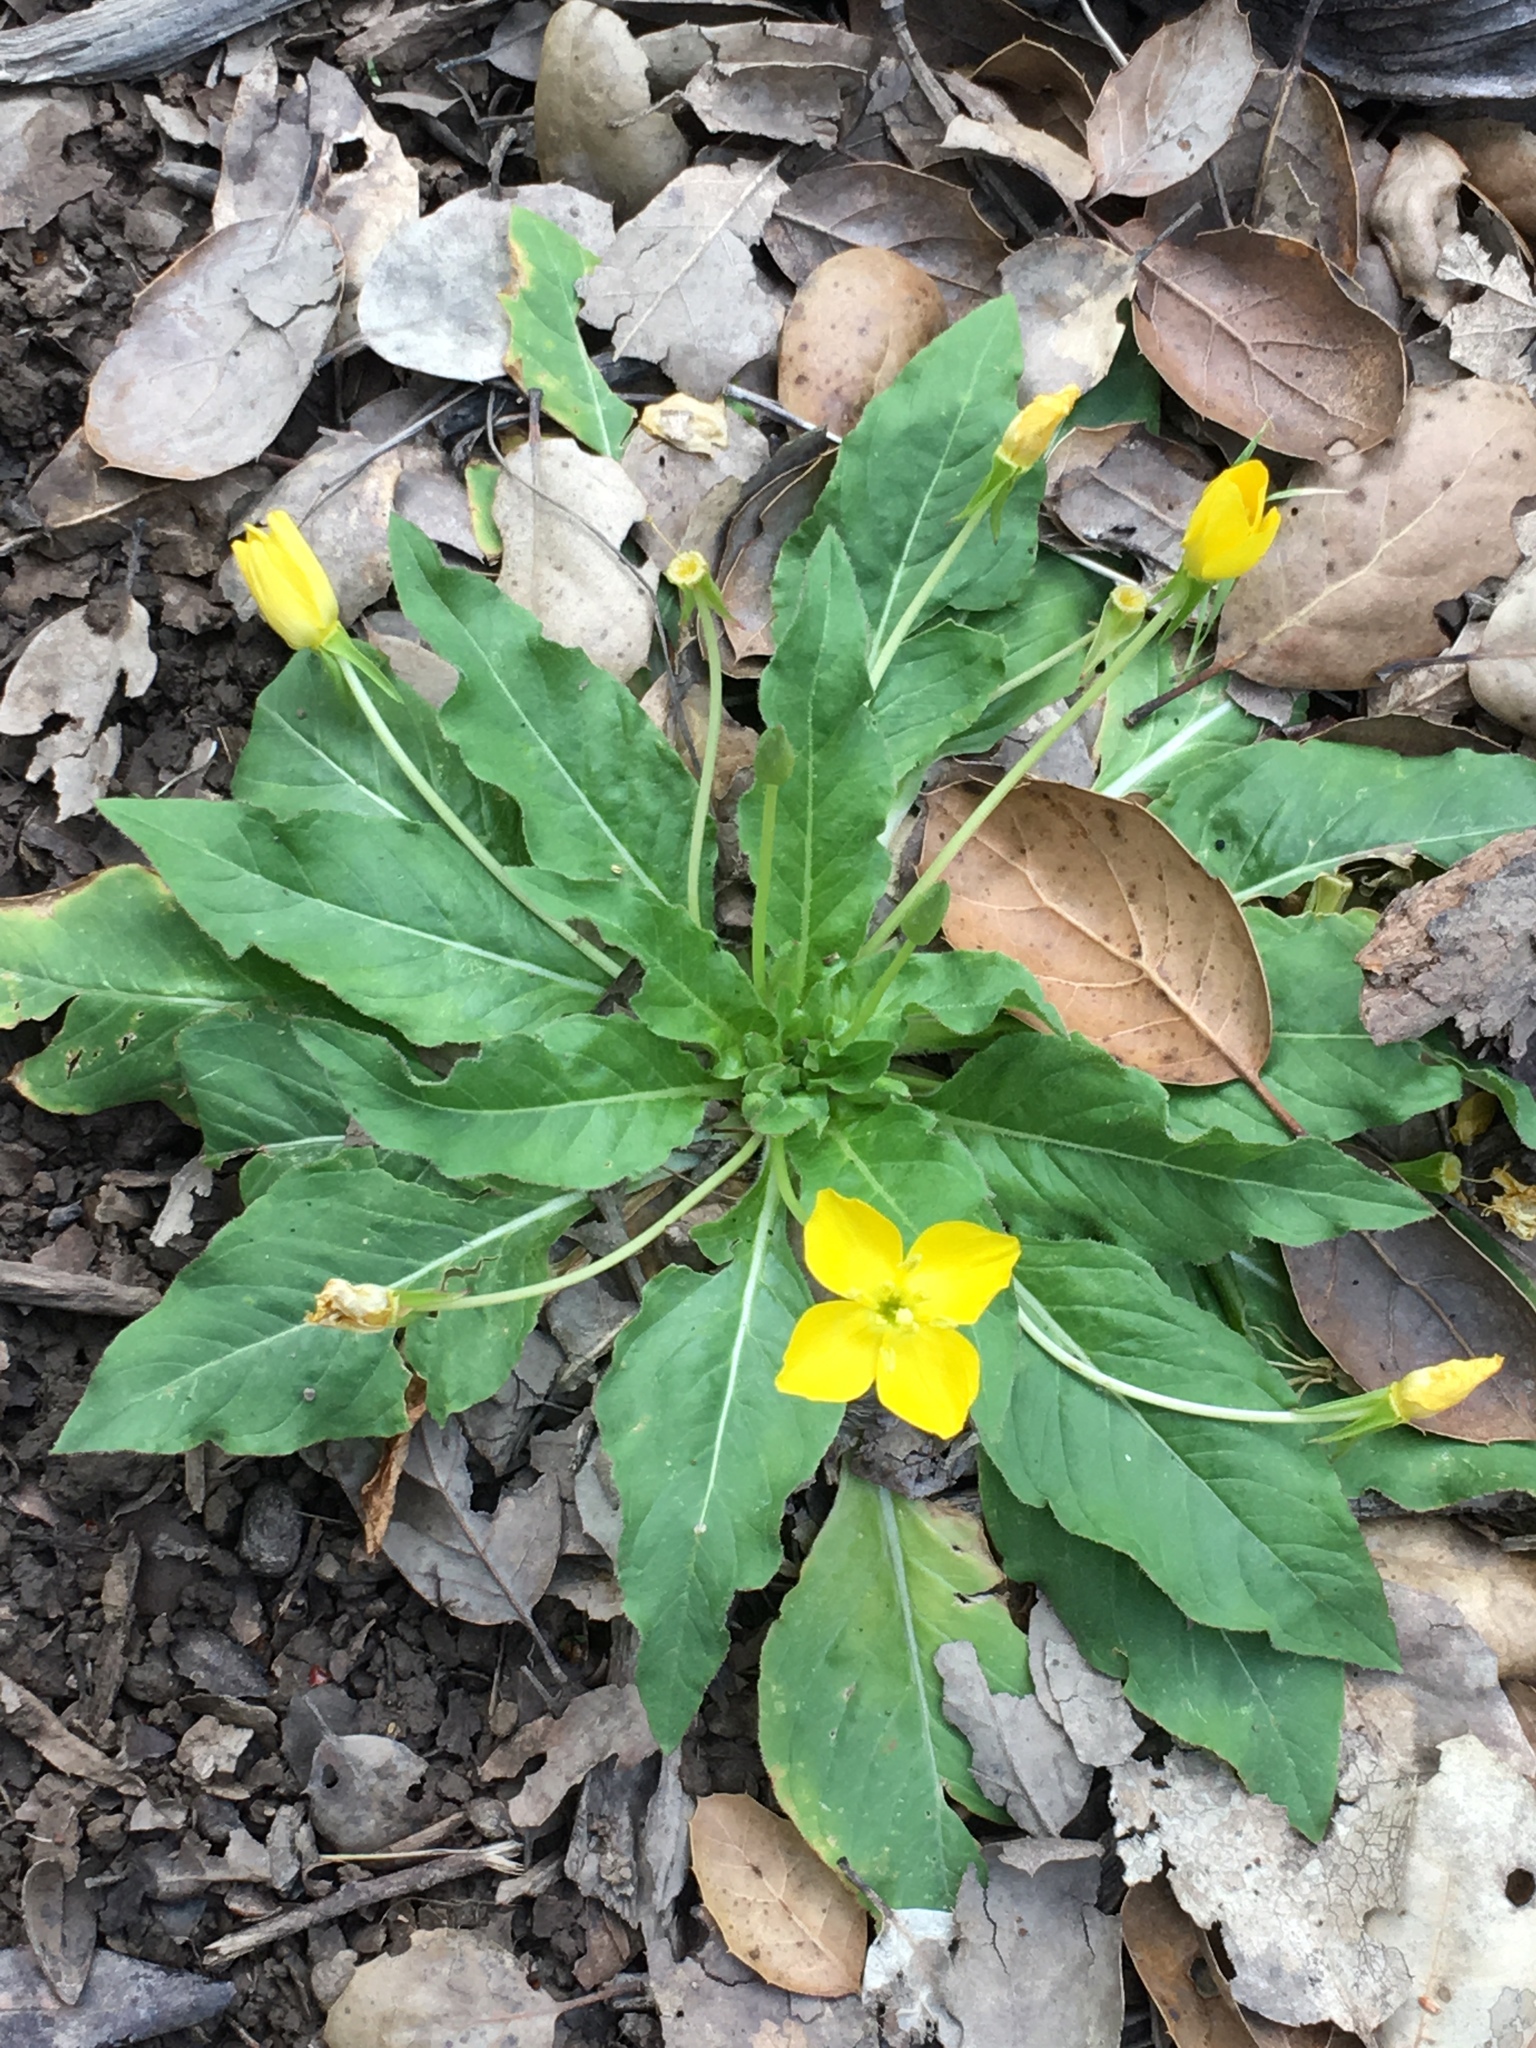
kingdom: Plantae
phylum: Tracheophyta
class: Magnoliopsida
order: Myrtales
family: Onagraceae
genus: Taraxia
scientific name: Taraxia ovata
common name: Goldeneggs
